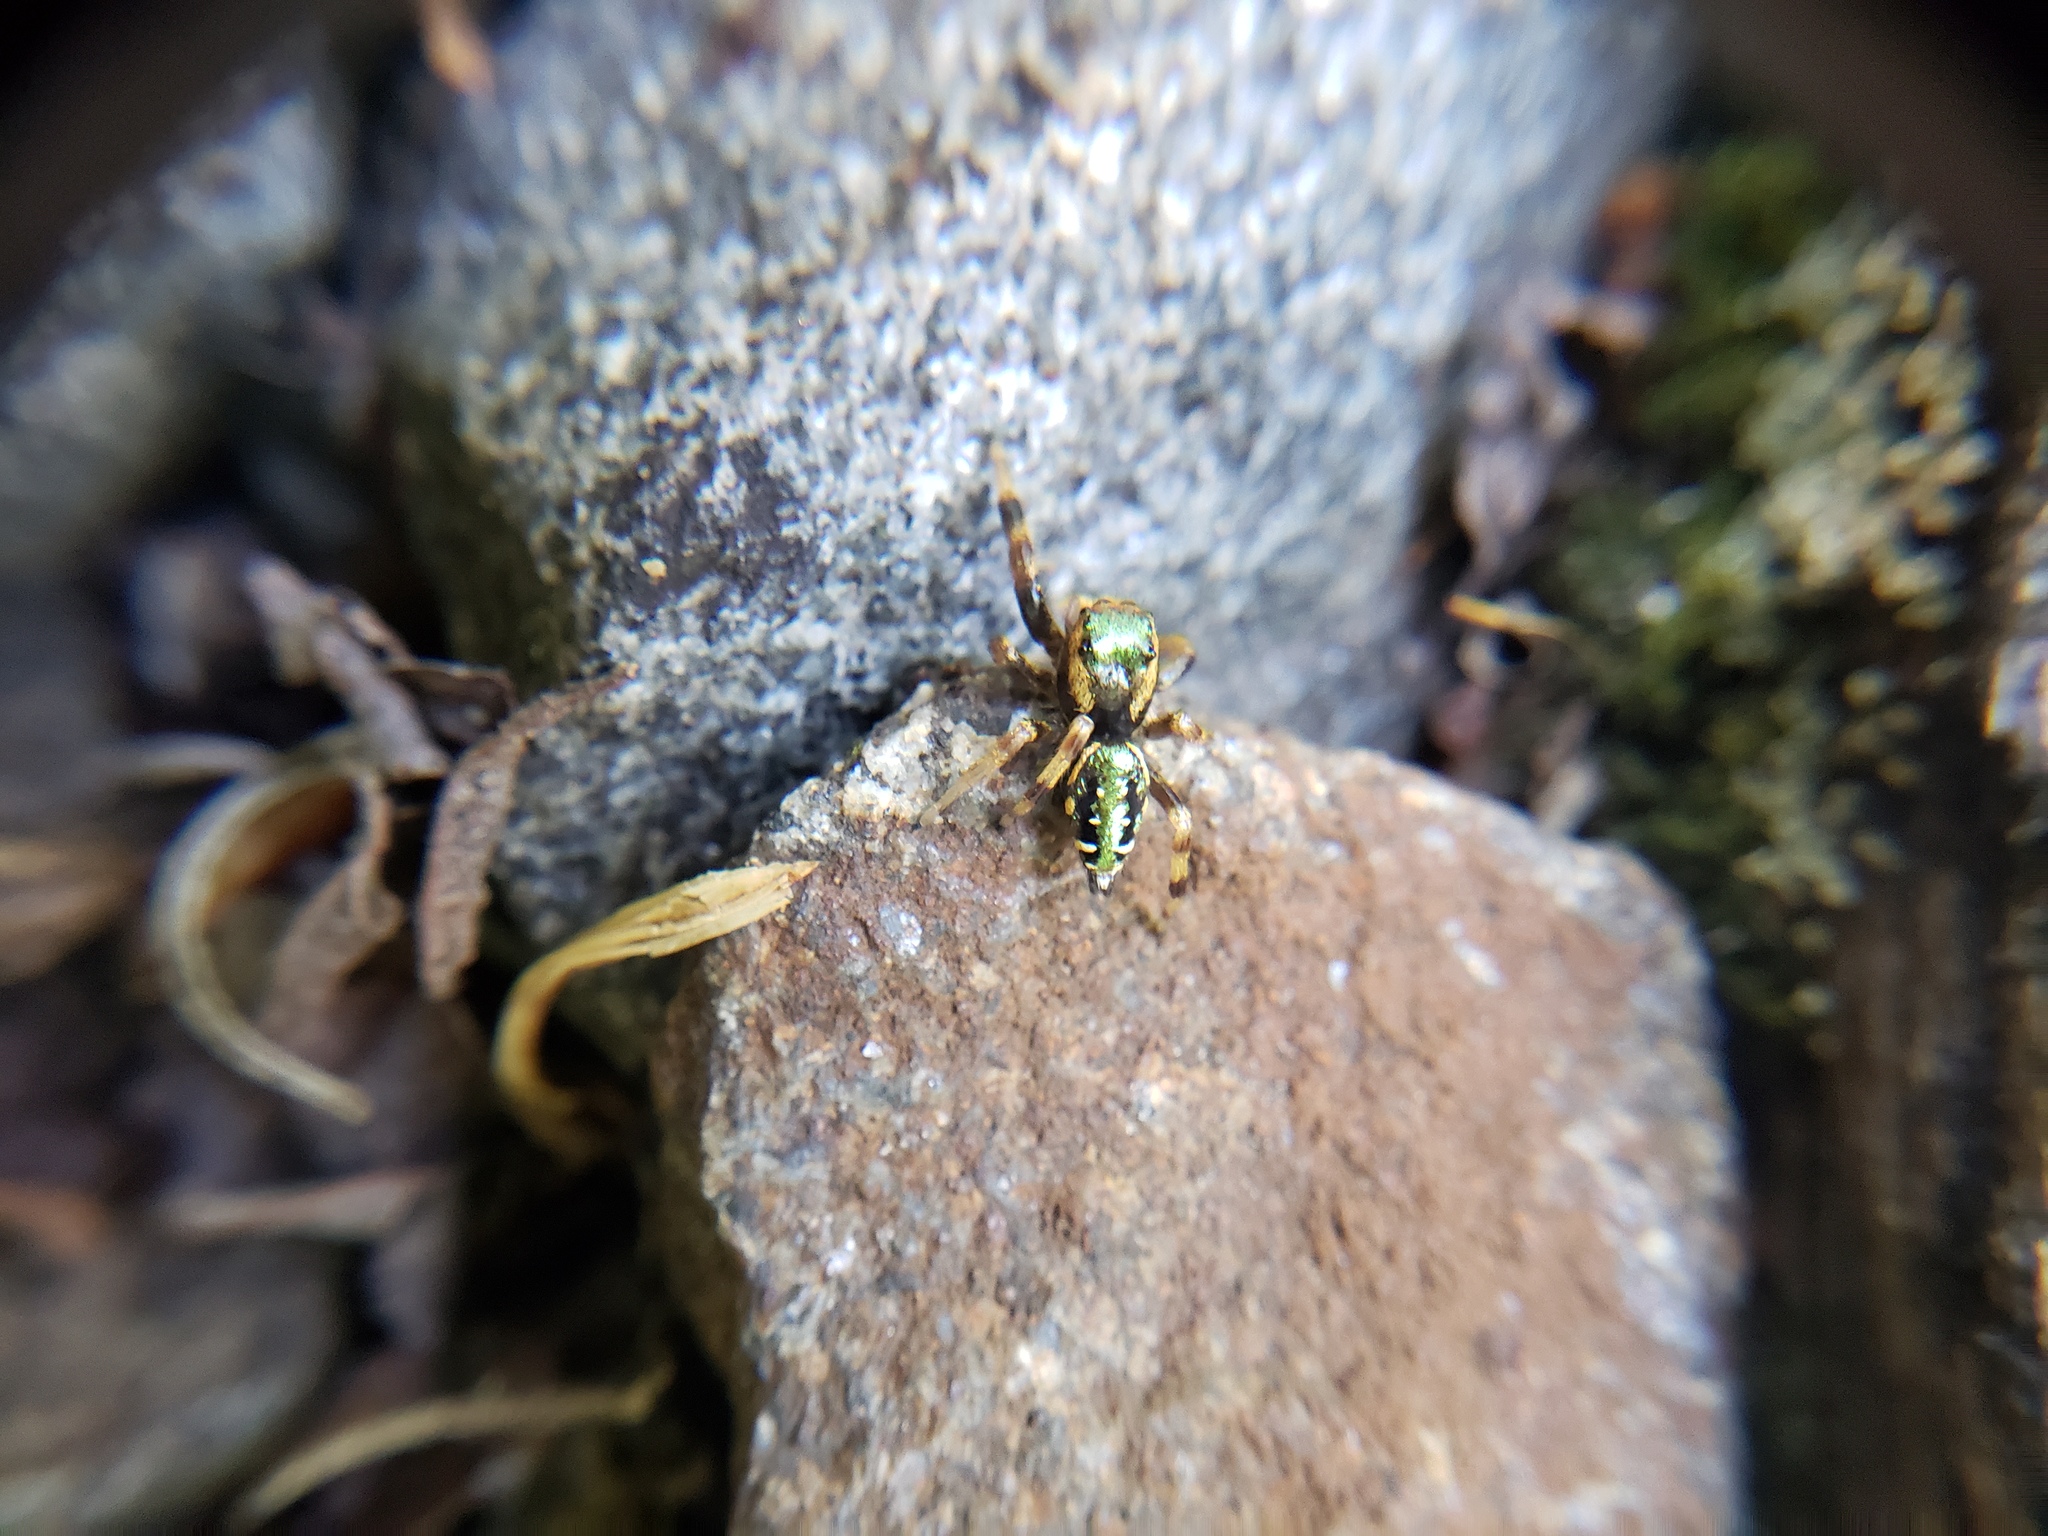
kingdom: Animalia
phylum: Arthropoda
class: Arachnida
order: Araneae
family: Salticidae
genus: Paraphidippus
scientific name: Paraphidippus aurantius
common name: Jumping spiders
